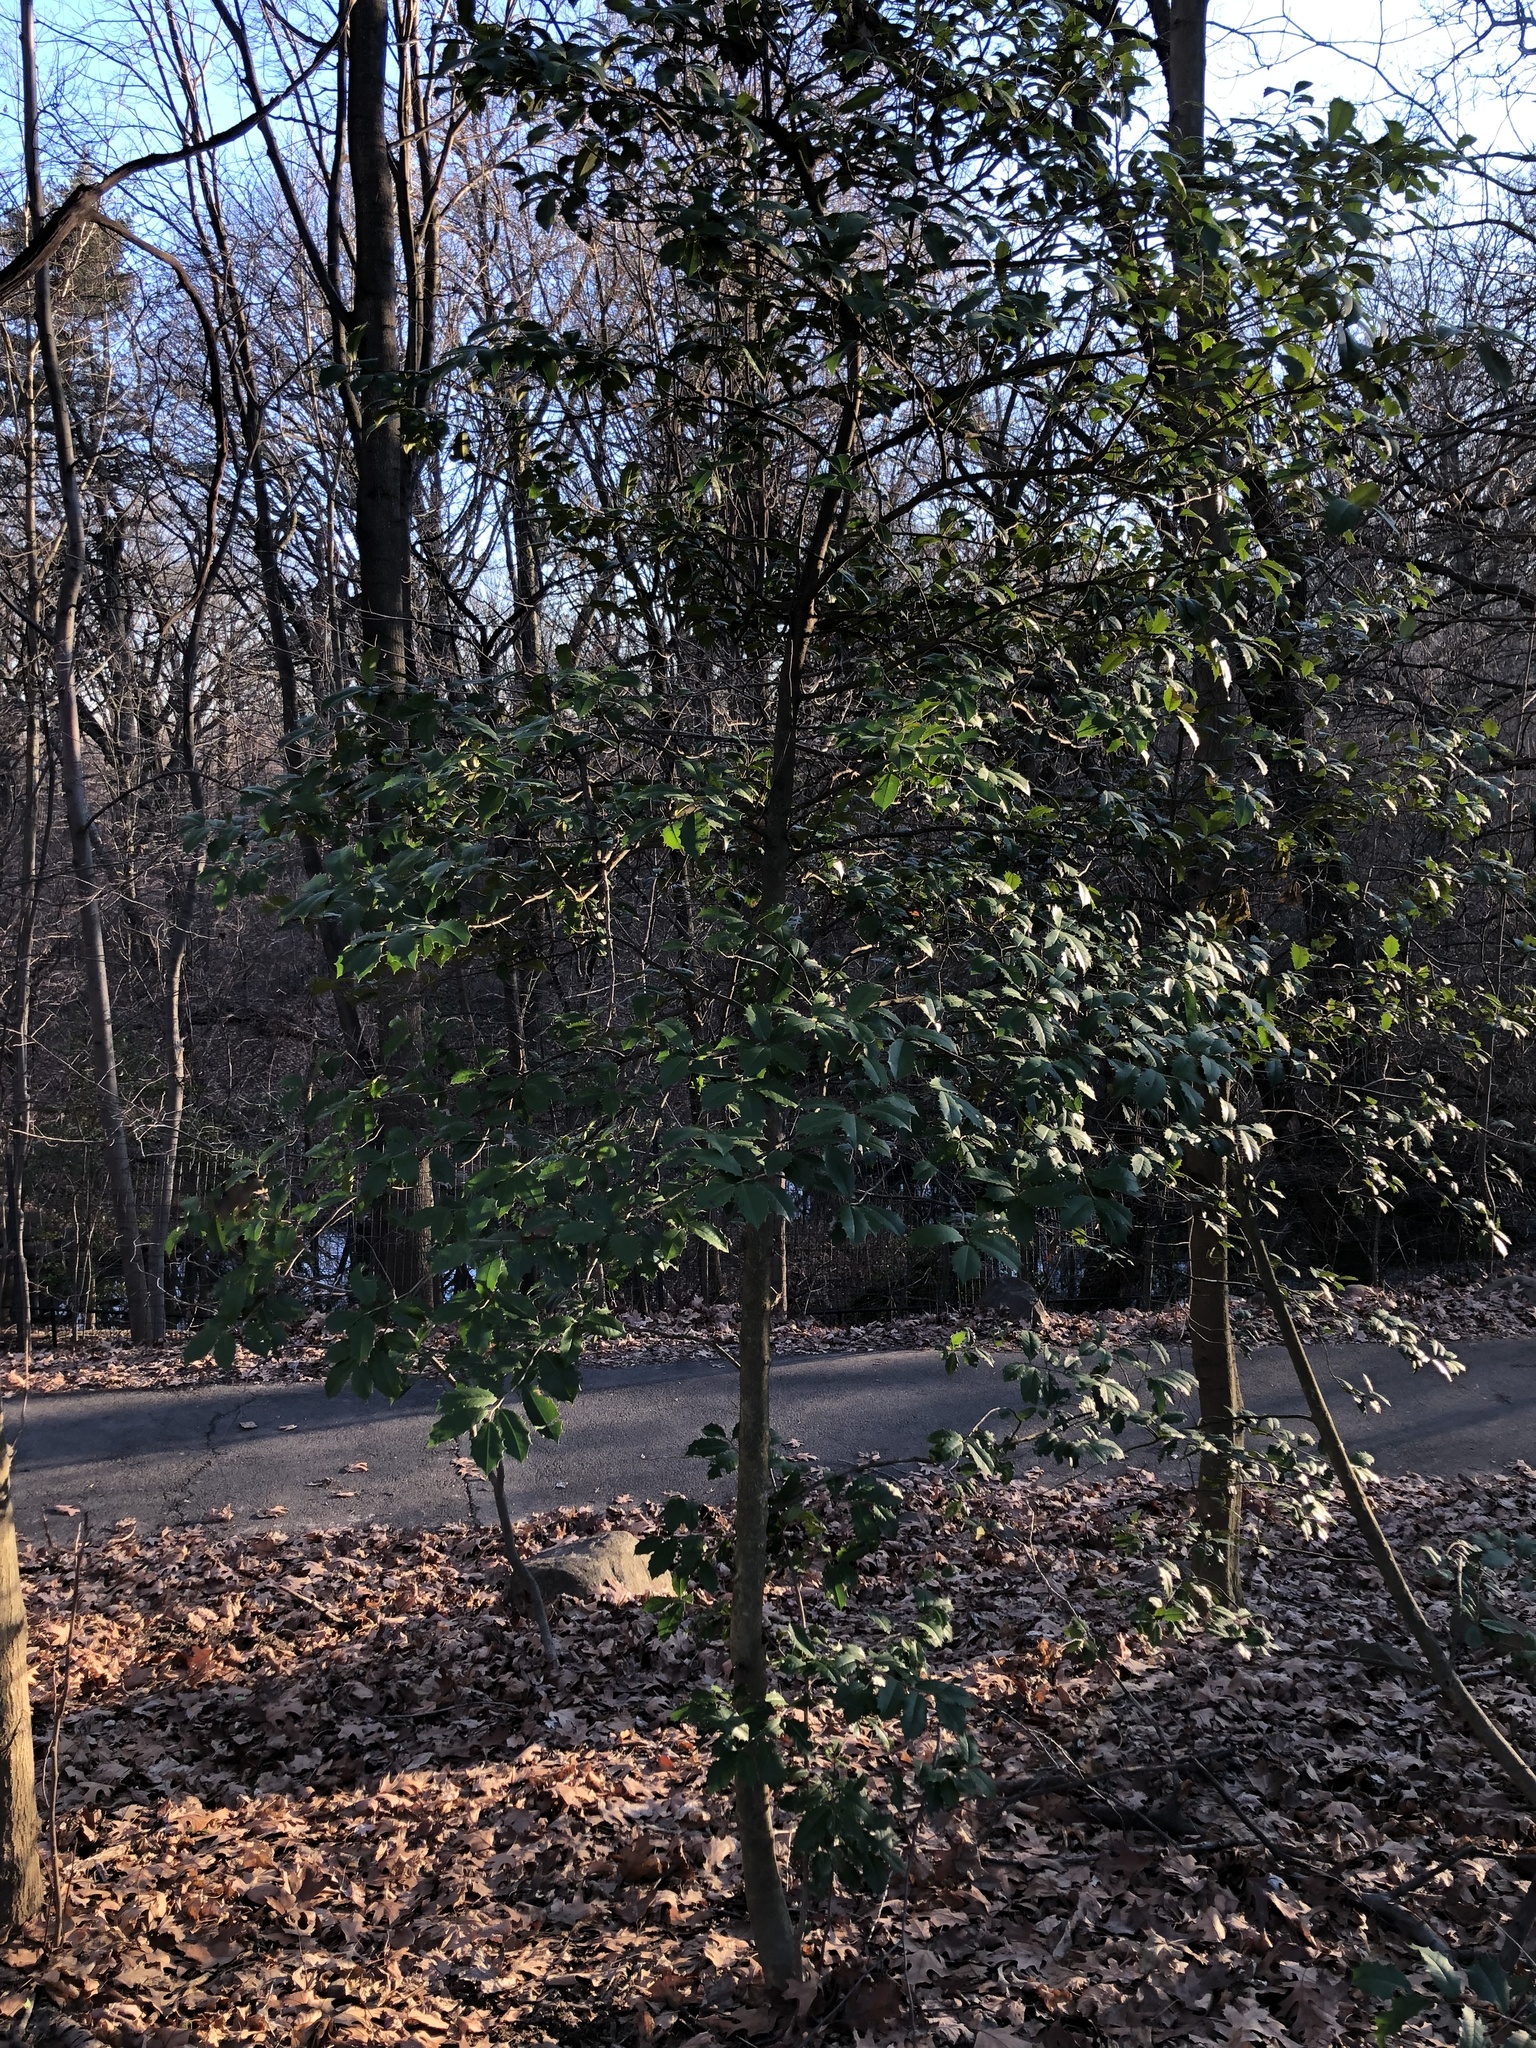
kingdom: Plantae
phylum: Tracheophyta
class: Magnoliopsida
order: Aquifoliales
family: Aquifoliaceae
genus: Ilex
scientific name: Ilex opaca
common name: American holly
